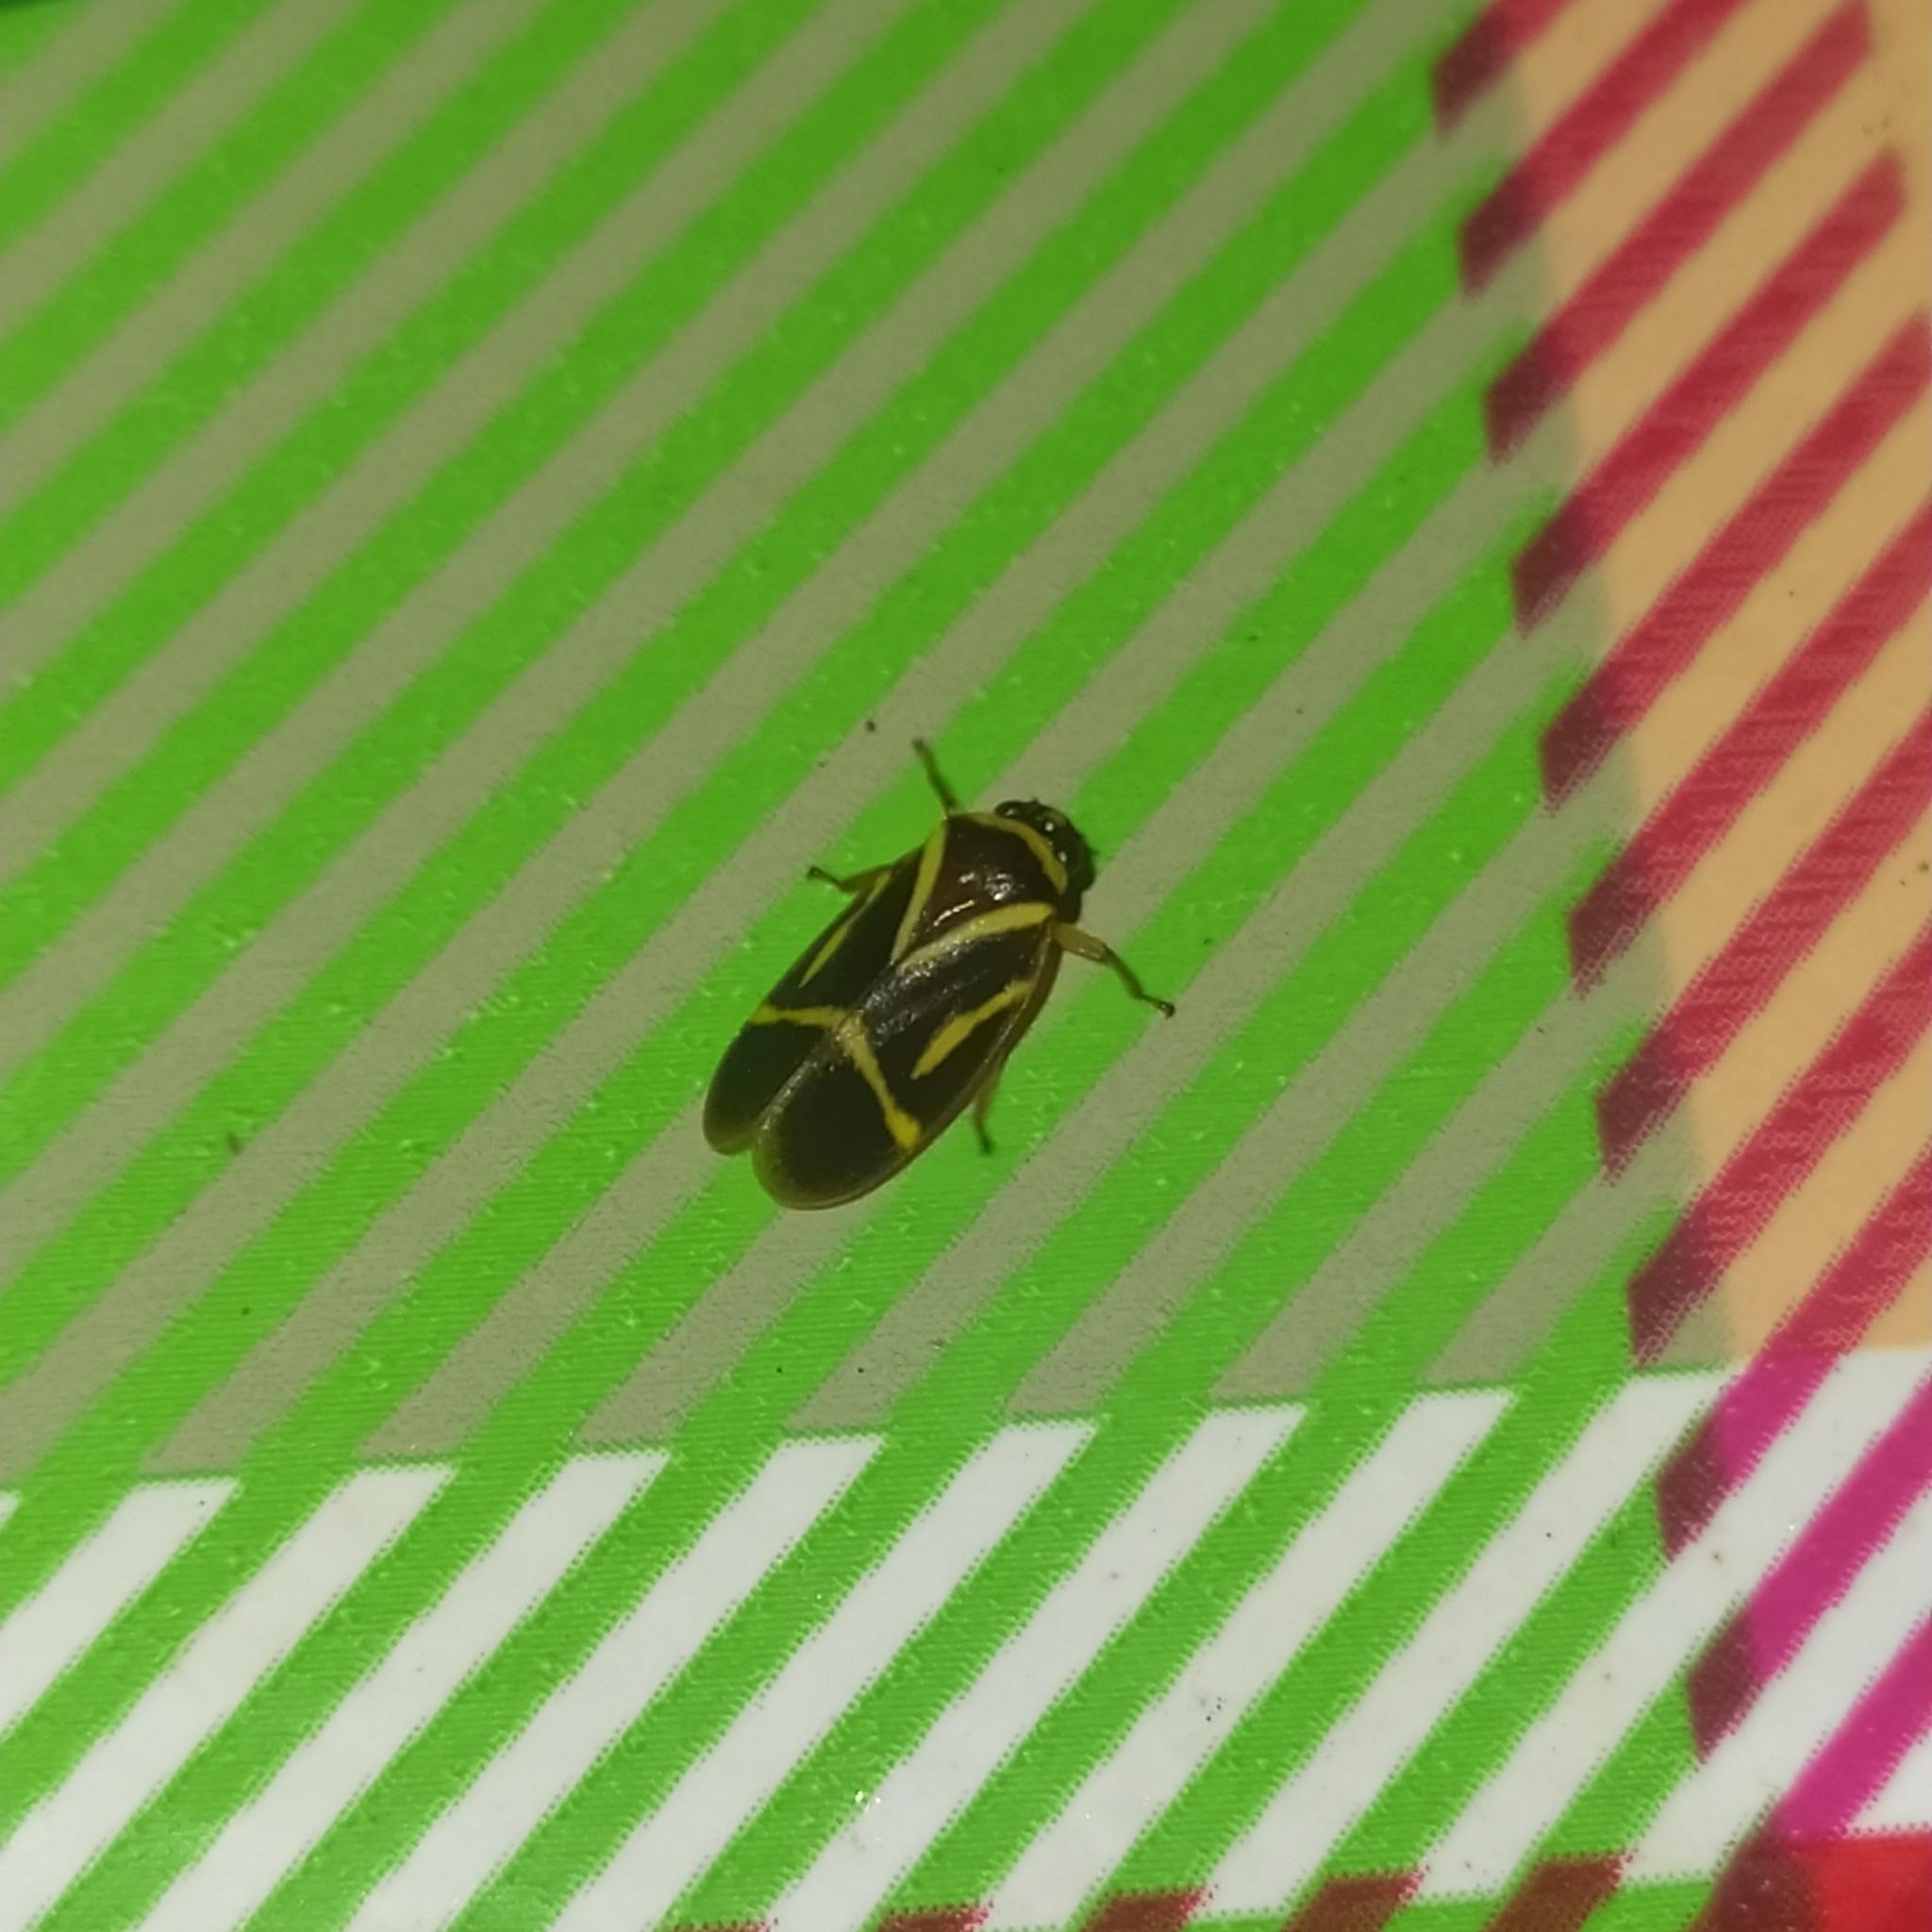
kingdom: Animalia
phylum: Arthropoda
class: Insecta
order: Hemiptera
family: Cercopidae
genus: Maxantonia
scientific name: Maxantonia lineola
